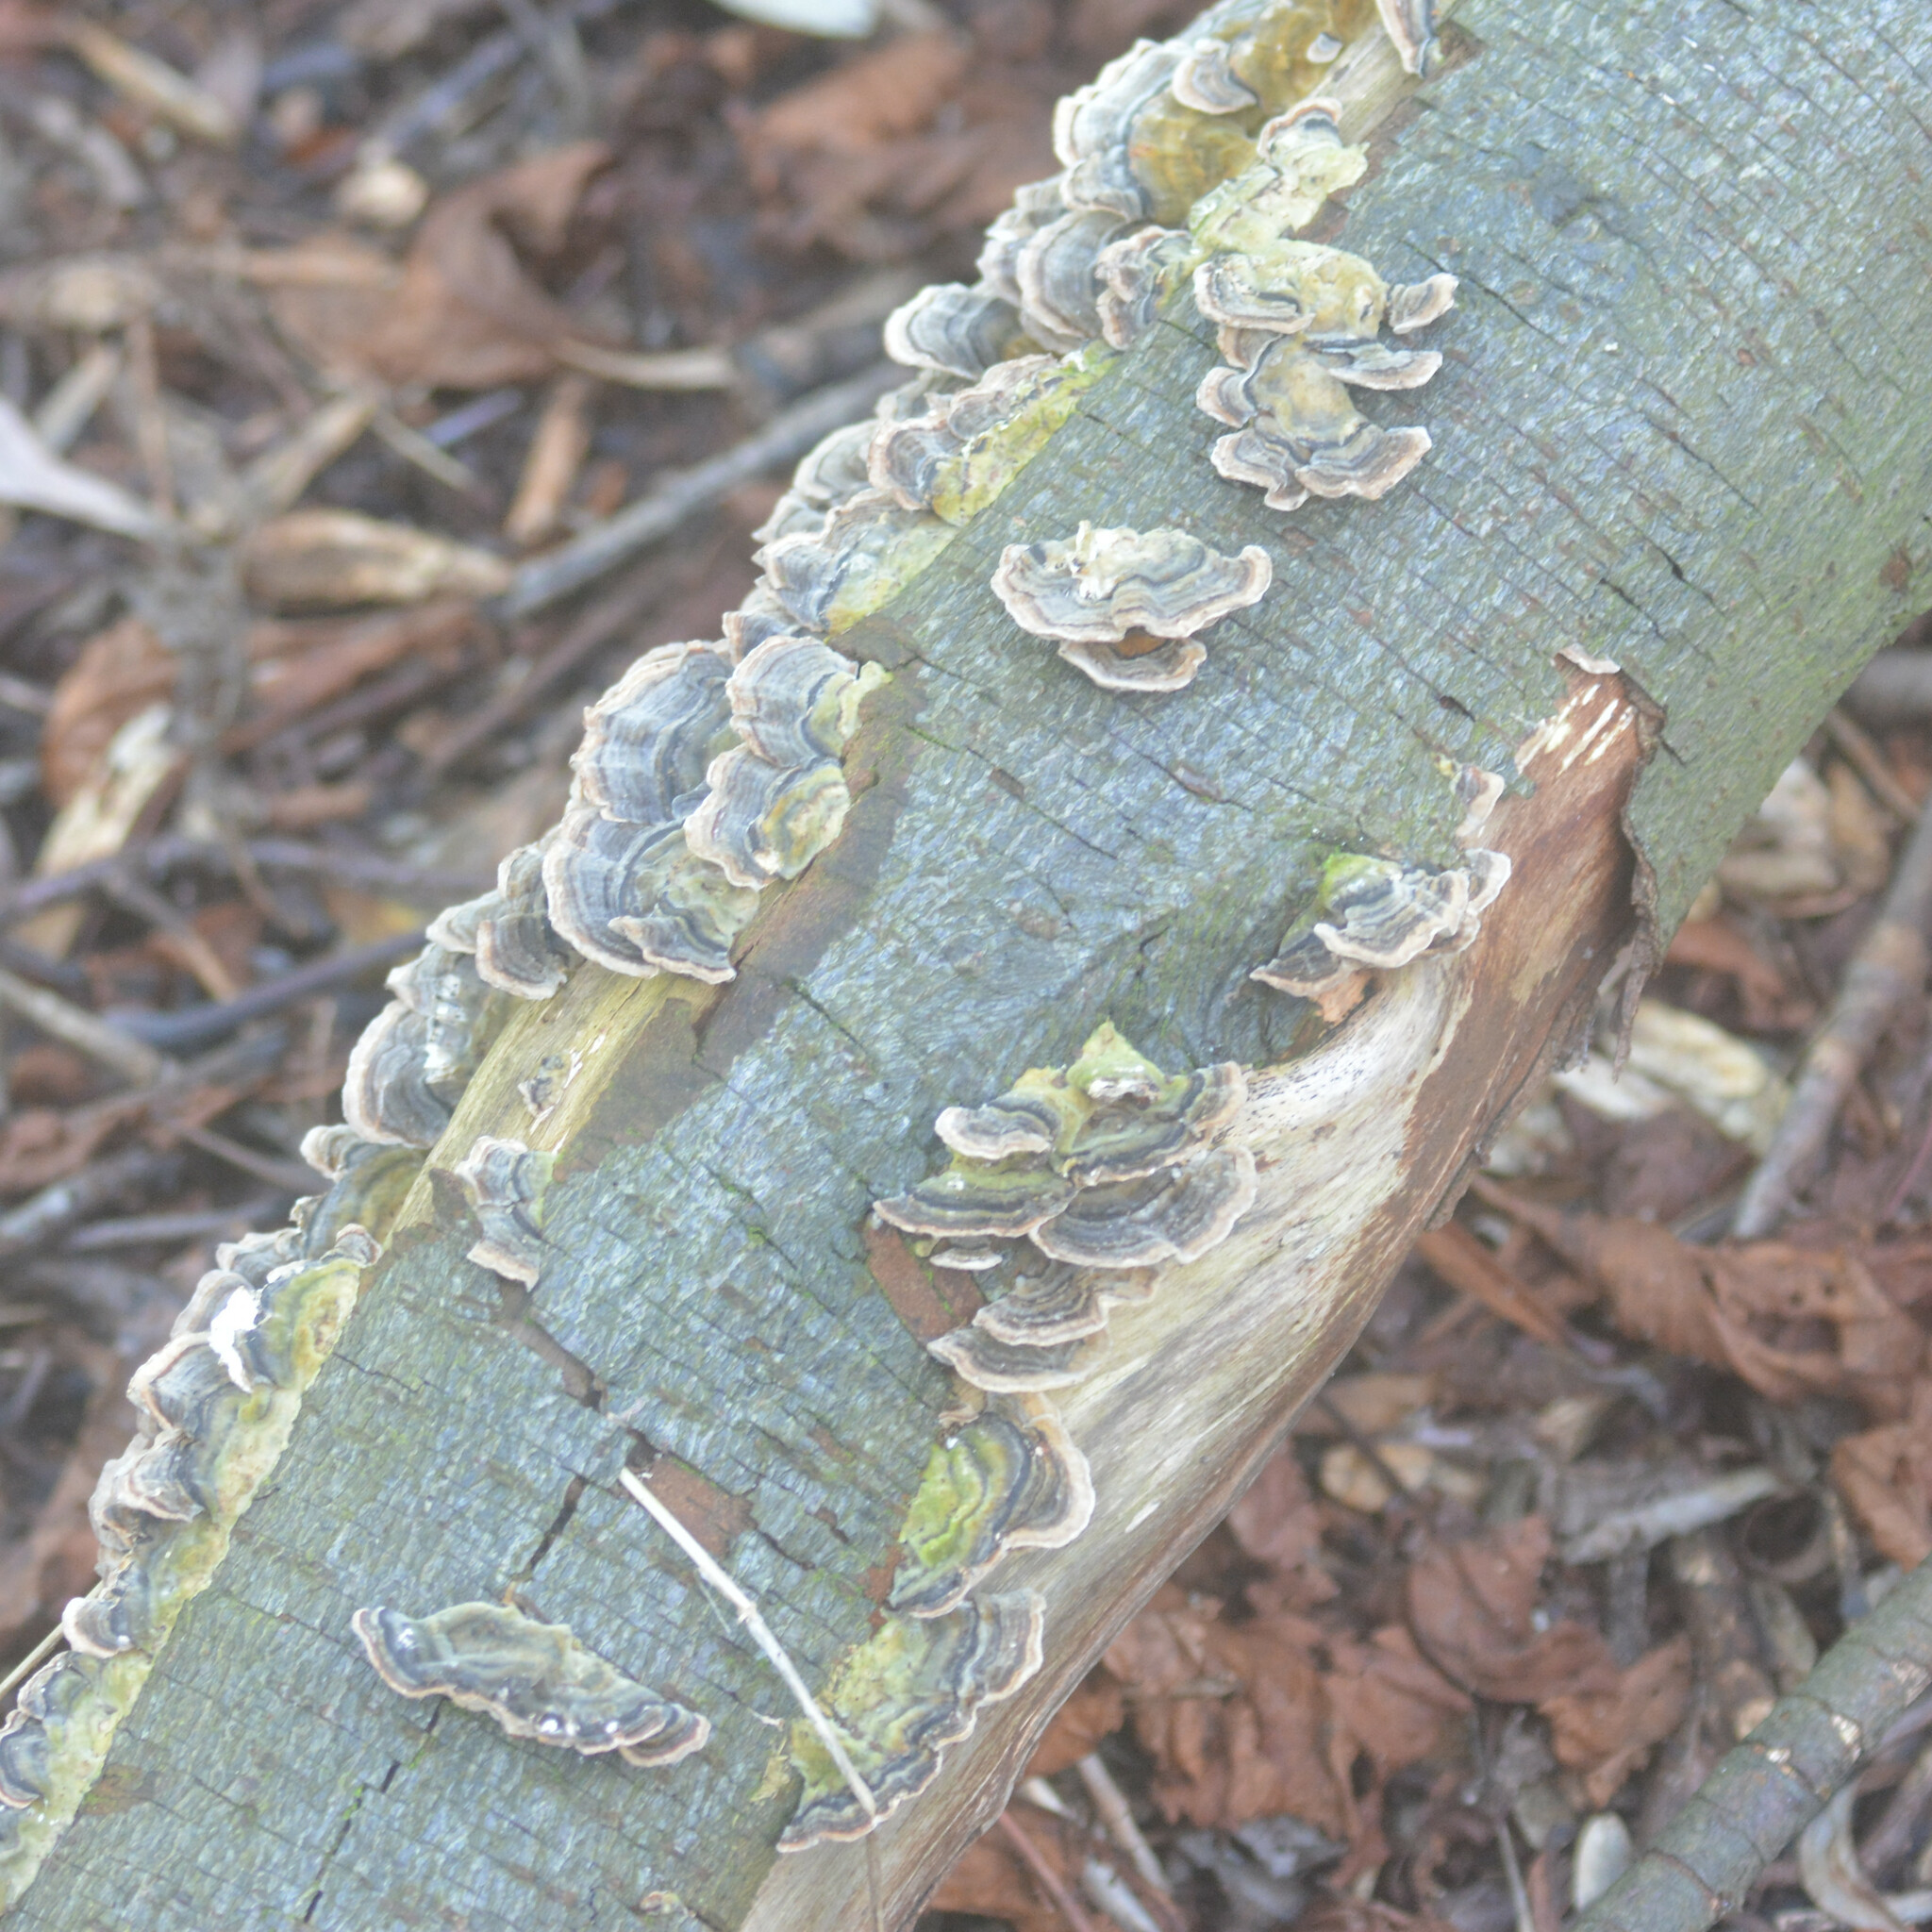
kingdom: Fungi
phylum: Basidiomycota
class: Agaricomycetes
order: Polyporales
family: Polyporaceae
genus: Trametes
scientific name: Trametes versicolor
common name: Turkeytail
